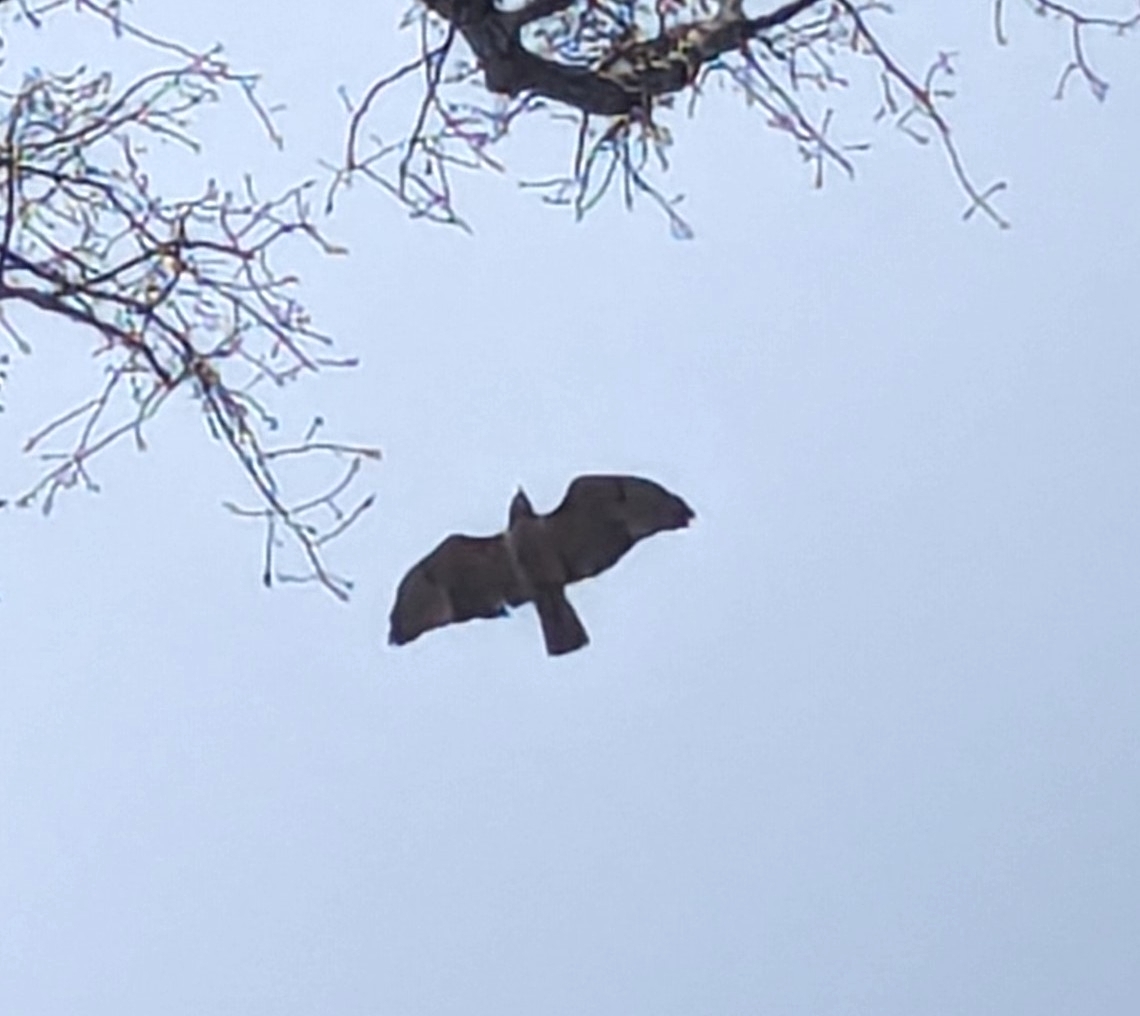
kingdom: Animalia
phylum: Chordata
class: Aves
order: Accipitriformes
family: Accipitridae
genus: Buteo
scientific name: Buteo jamaicensis
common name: Red-tailed hawk
